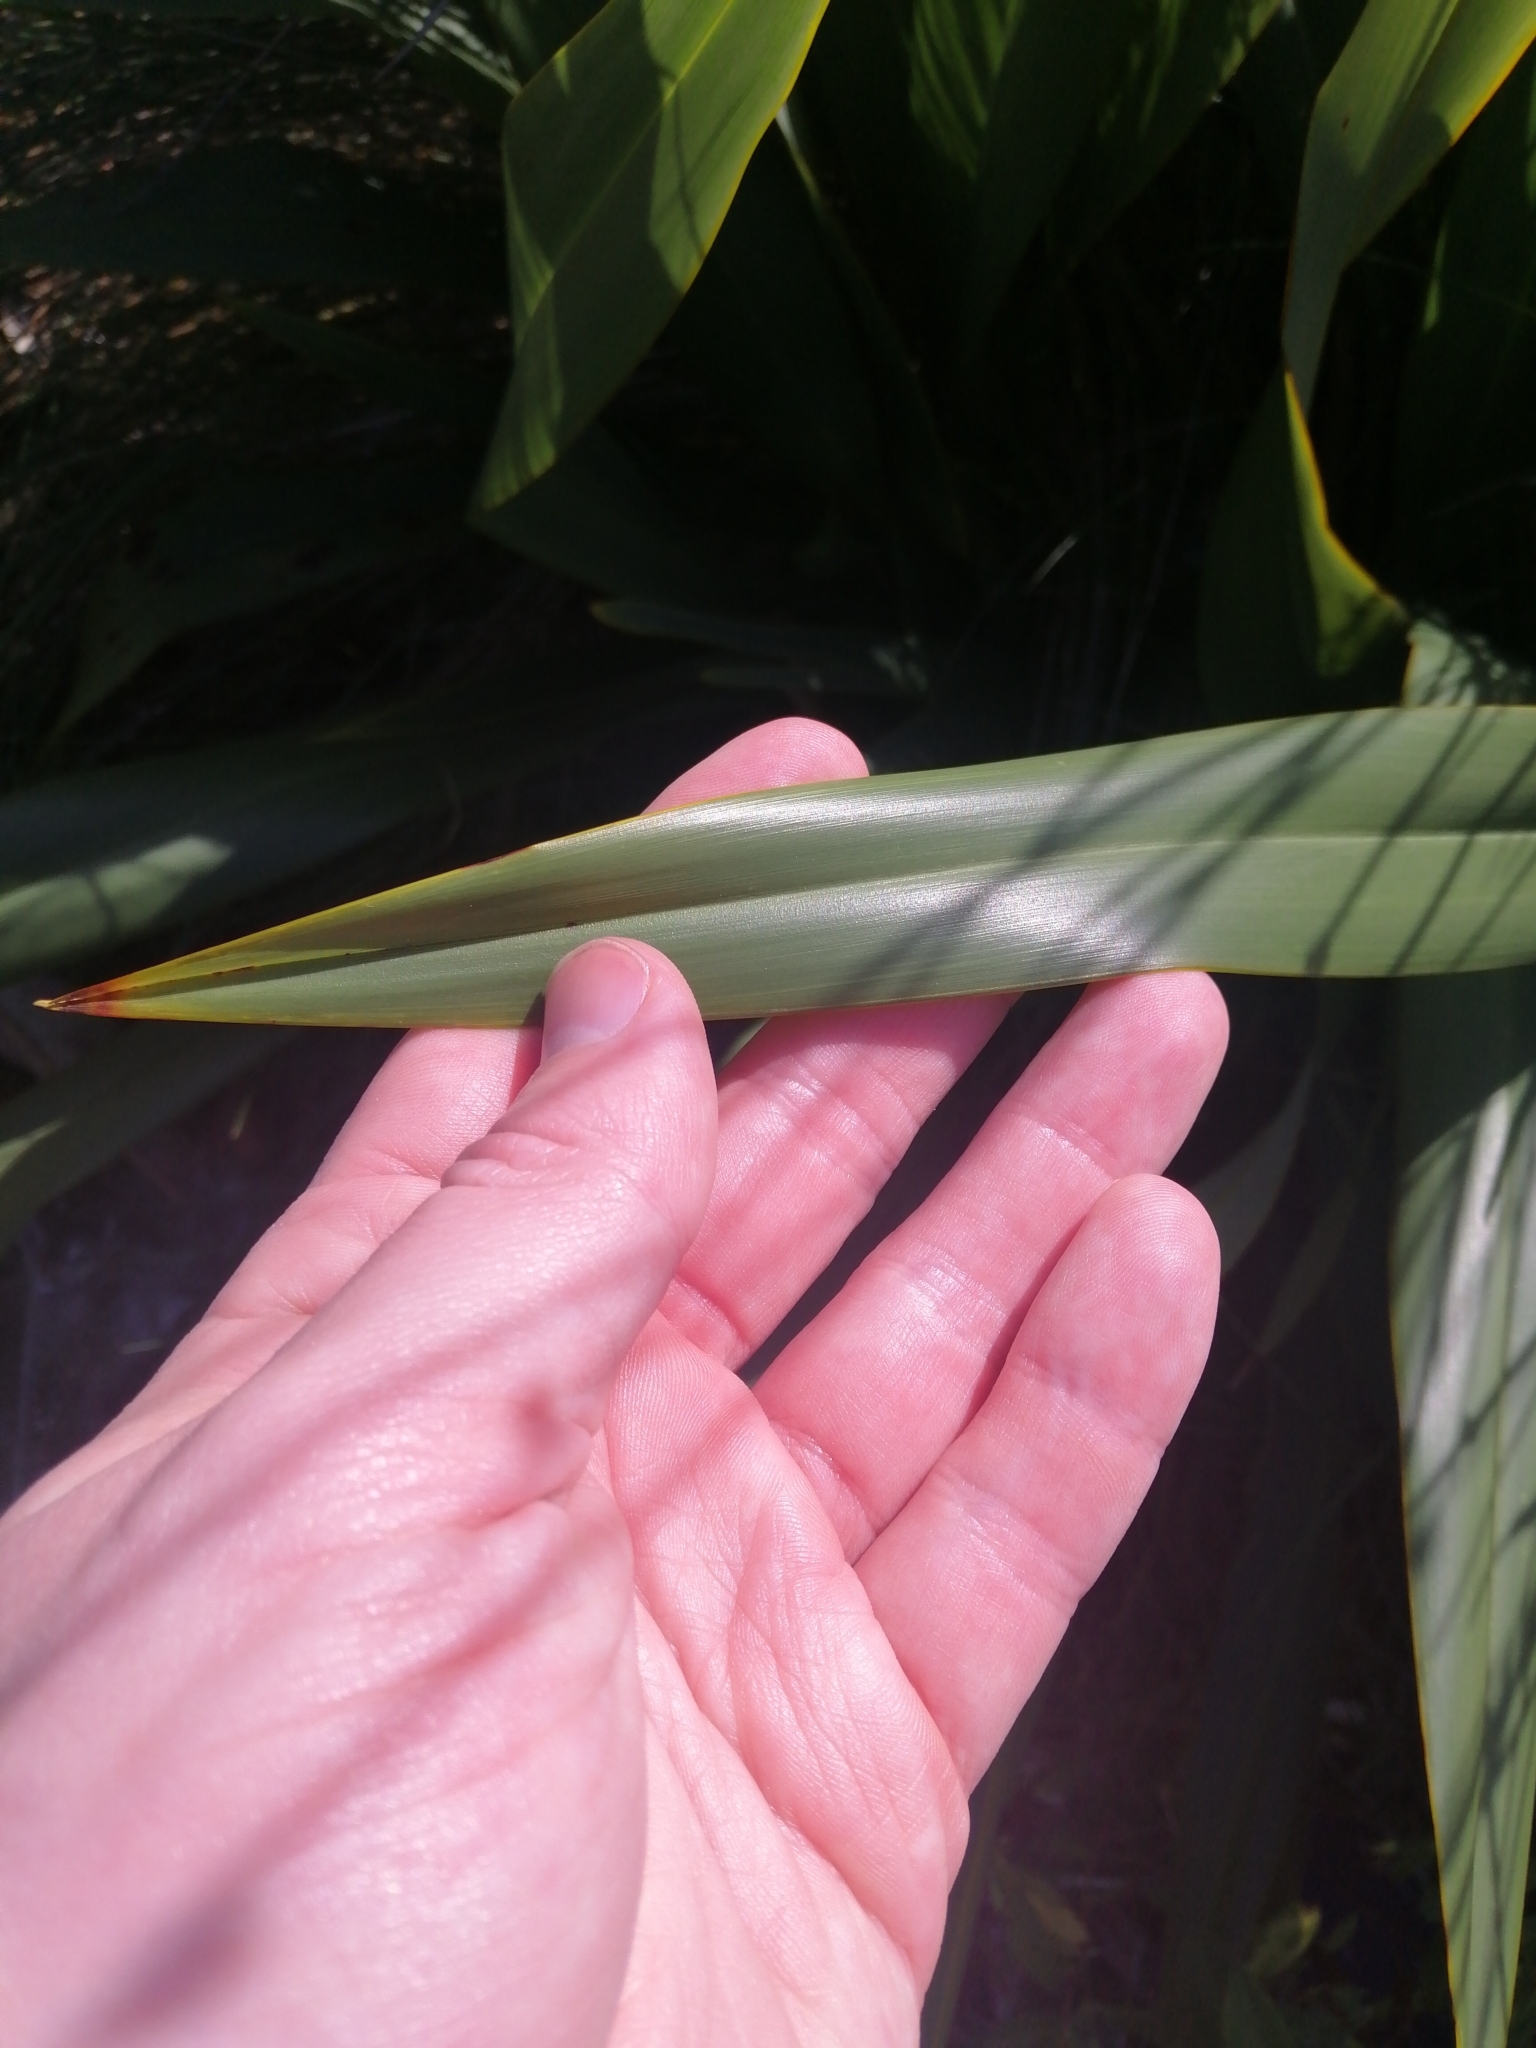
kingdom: Plantae
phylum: Tracheophyta
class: Liliopsida
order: Asparagales
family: Asphodelaceae
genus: Phormium
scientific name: Phormium tenax
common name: New zealand flax
